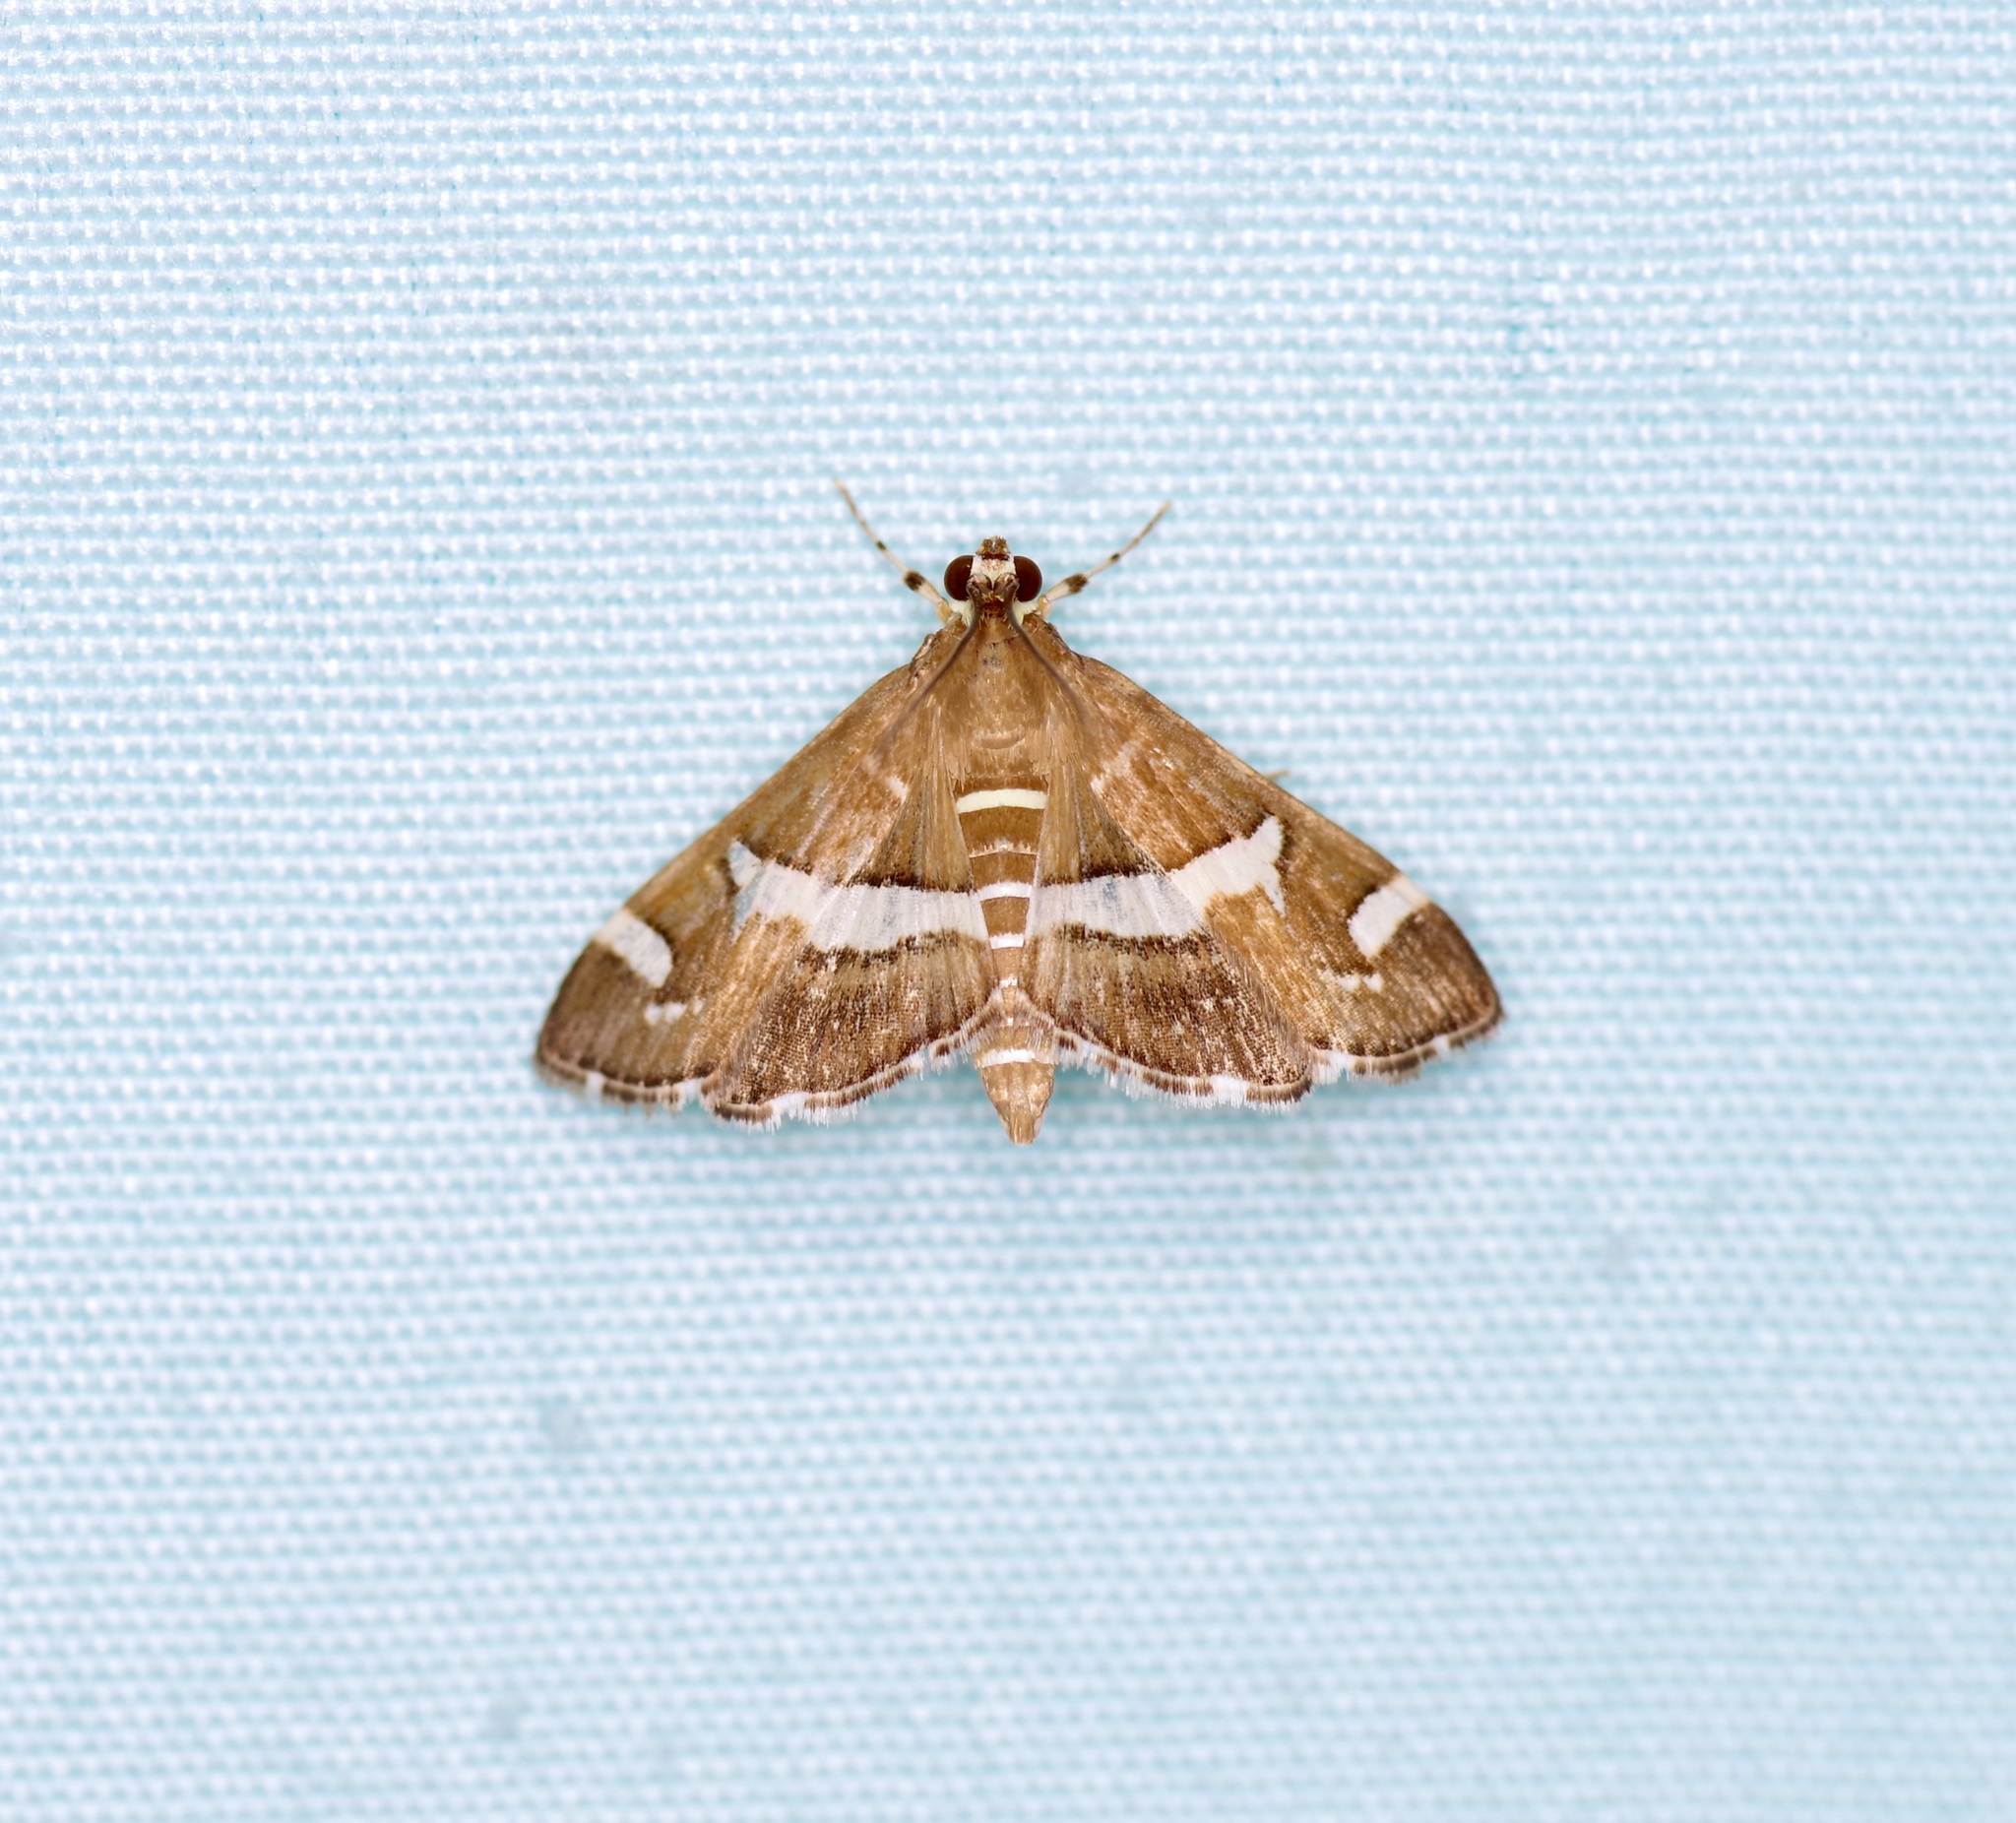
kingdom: Animalia
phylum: Arthropoda
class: Insecta
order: Lepidoptera
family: Crambidae
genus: Spoladea
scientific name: Spoladea recurvalis
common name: Beet webworm moth
